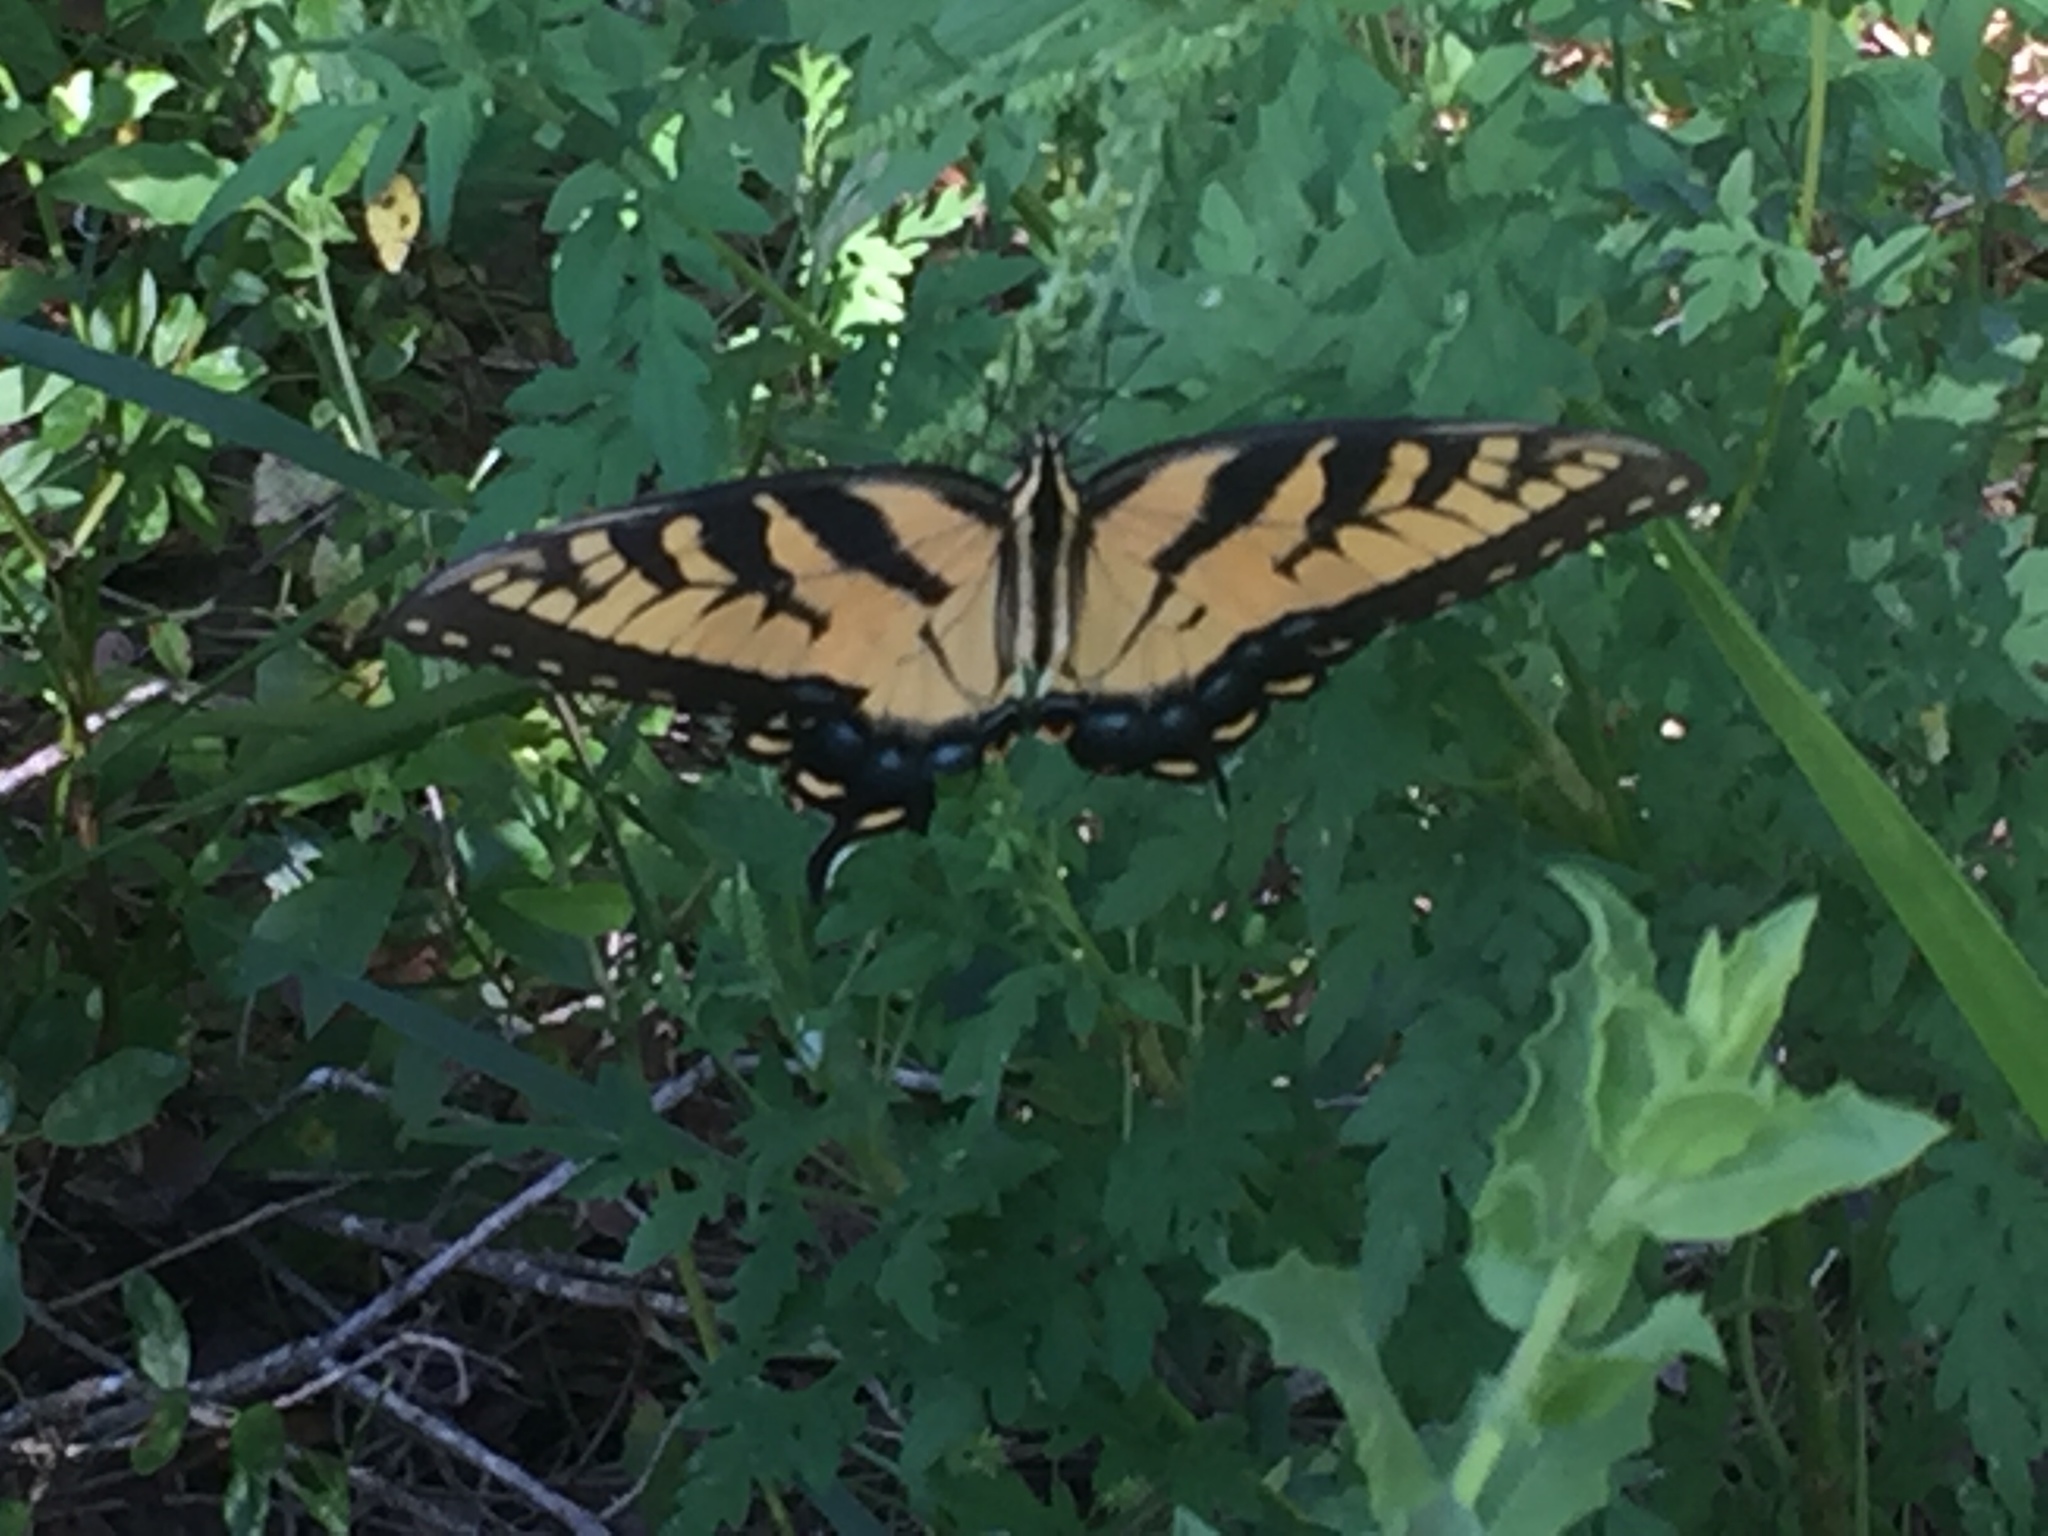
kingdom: Animalia
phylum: Arthropoda
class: Insecta
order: Lepidoptera
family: Papilionidae
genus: Papilio
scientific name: Papilio glaucus
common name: Tiger swallowtail
